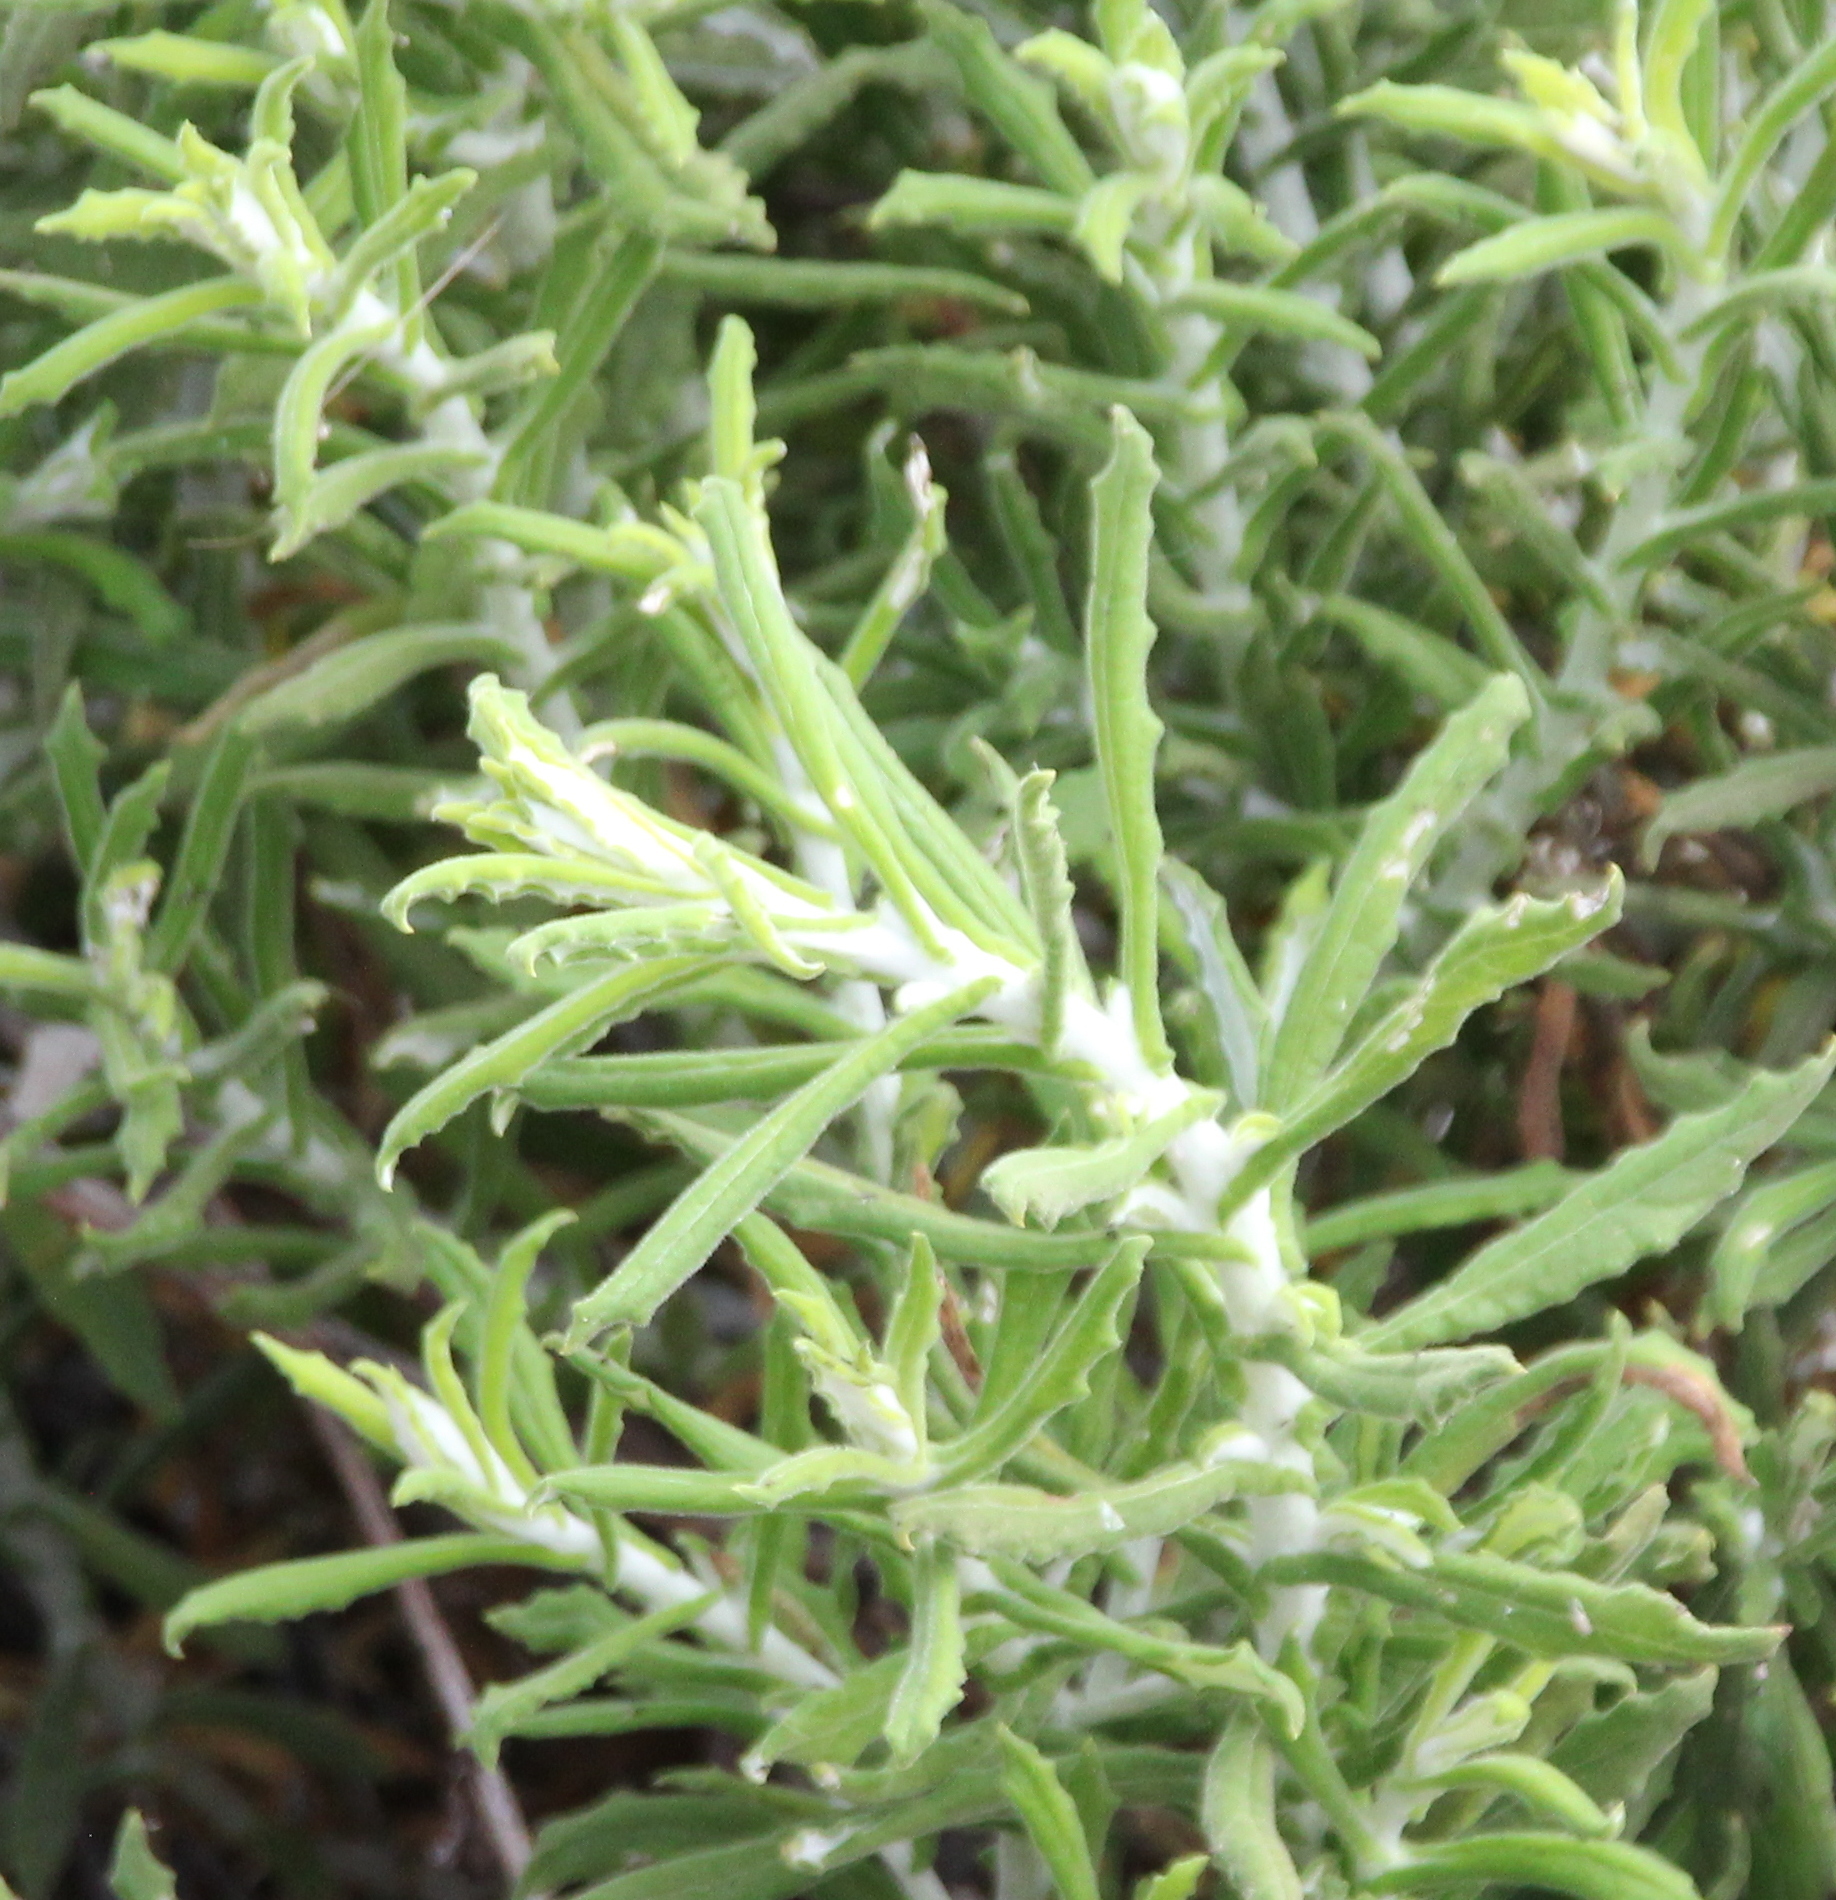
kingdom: Plantae
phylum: Tracheophyta
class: Magnoliopsida
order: Asterales
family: Asteraceae
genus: Pseudognaphalium
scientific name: Pseudognaphalium biolettii
